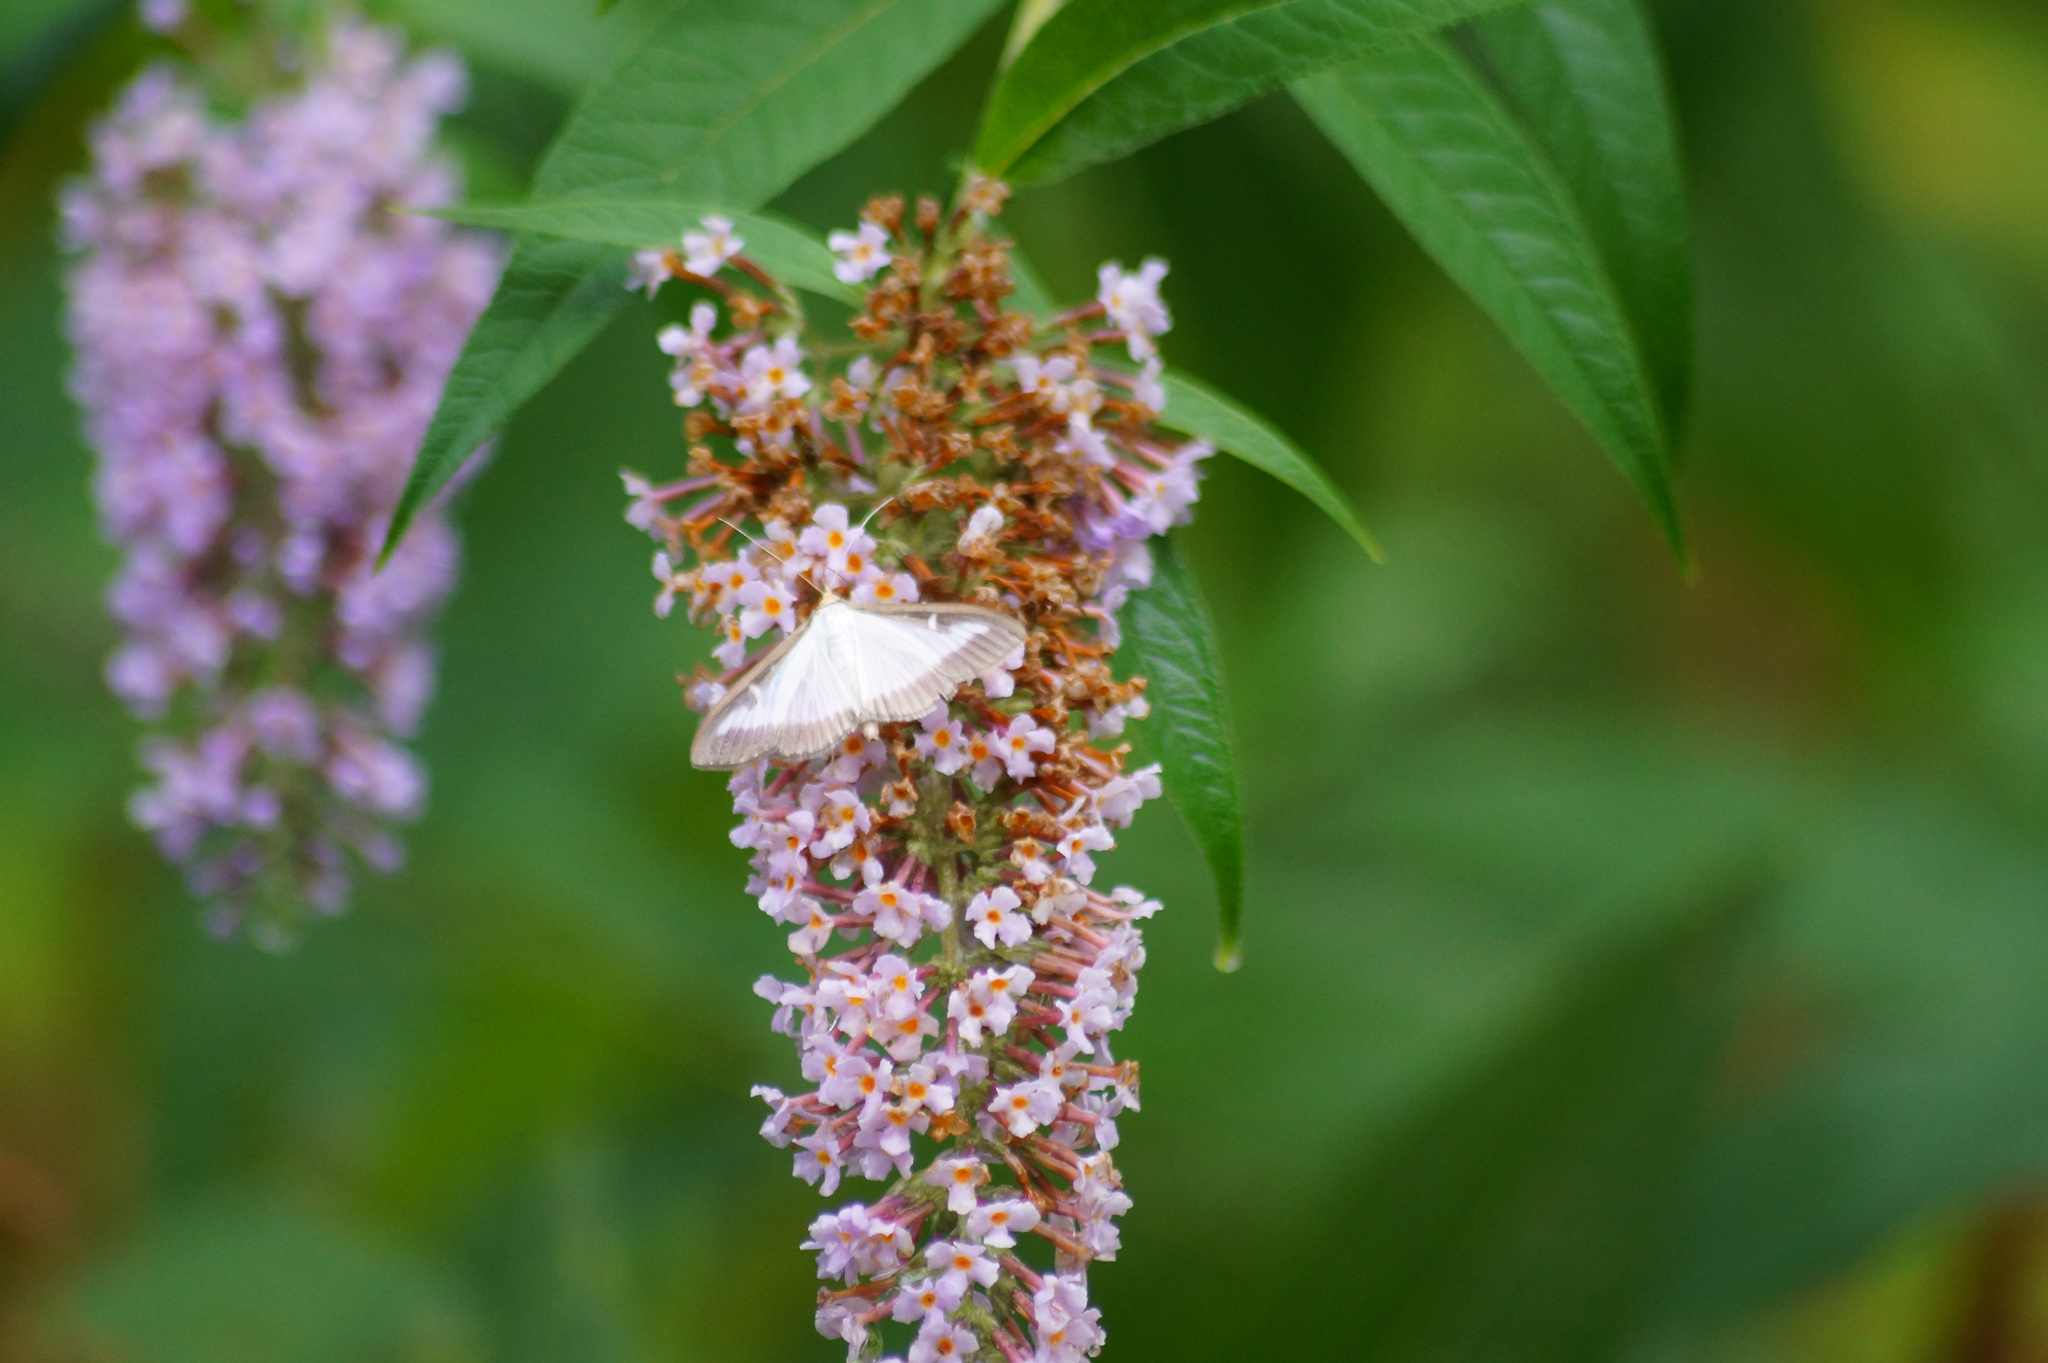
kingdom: Animalia
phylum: Arthropoda
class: Insecta
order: Lepidoptera
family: Crambidae
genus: Cydalima
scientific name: Cydalima perspectalis
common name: Box tree moth
